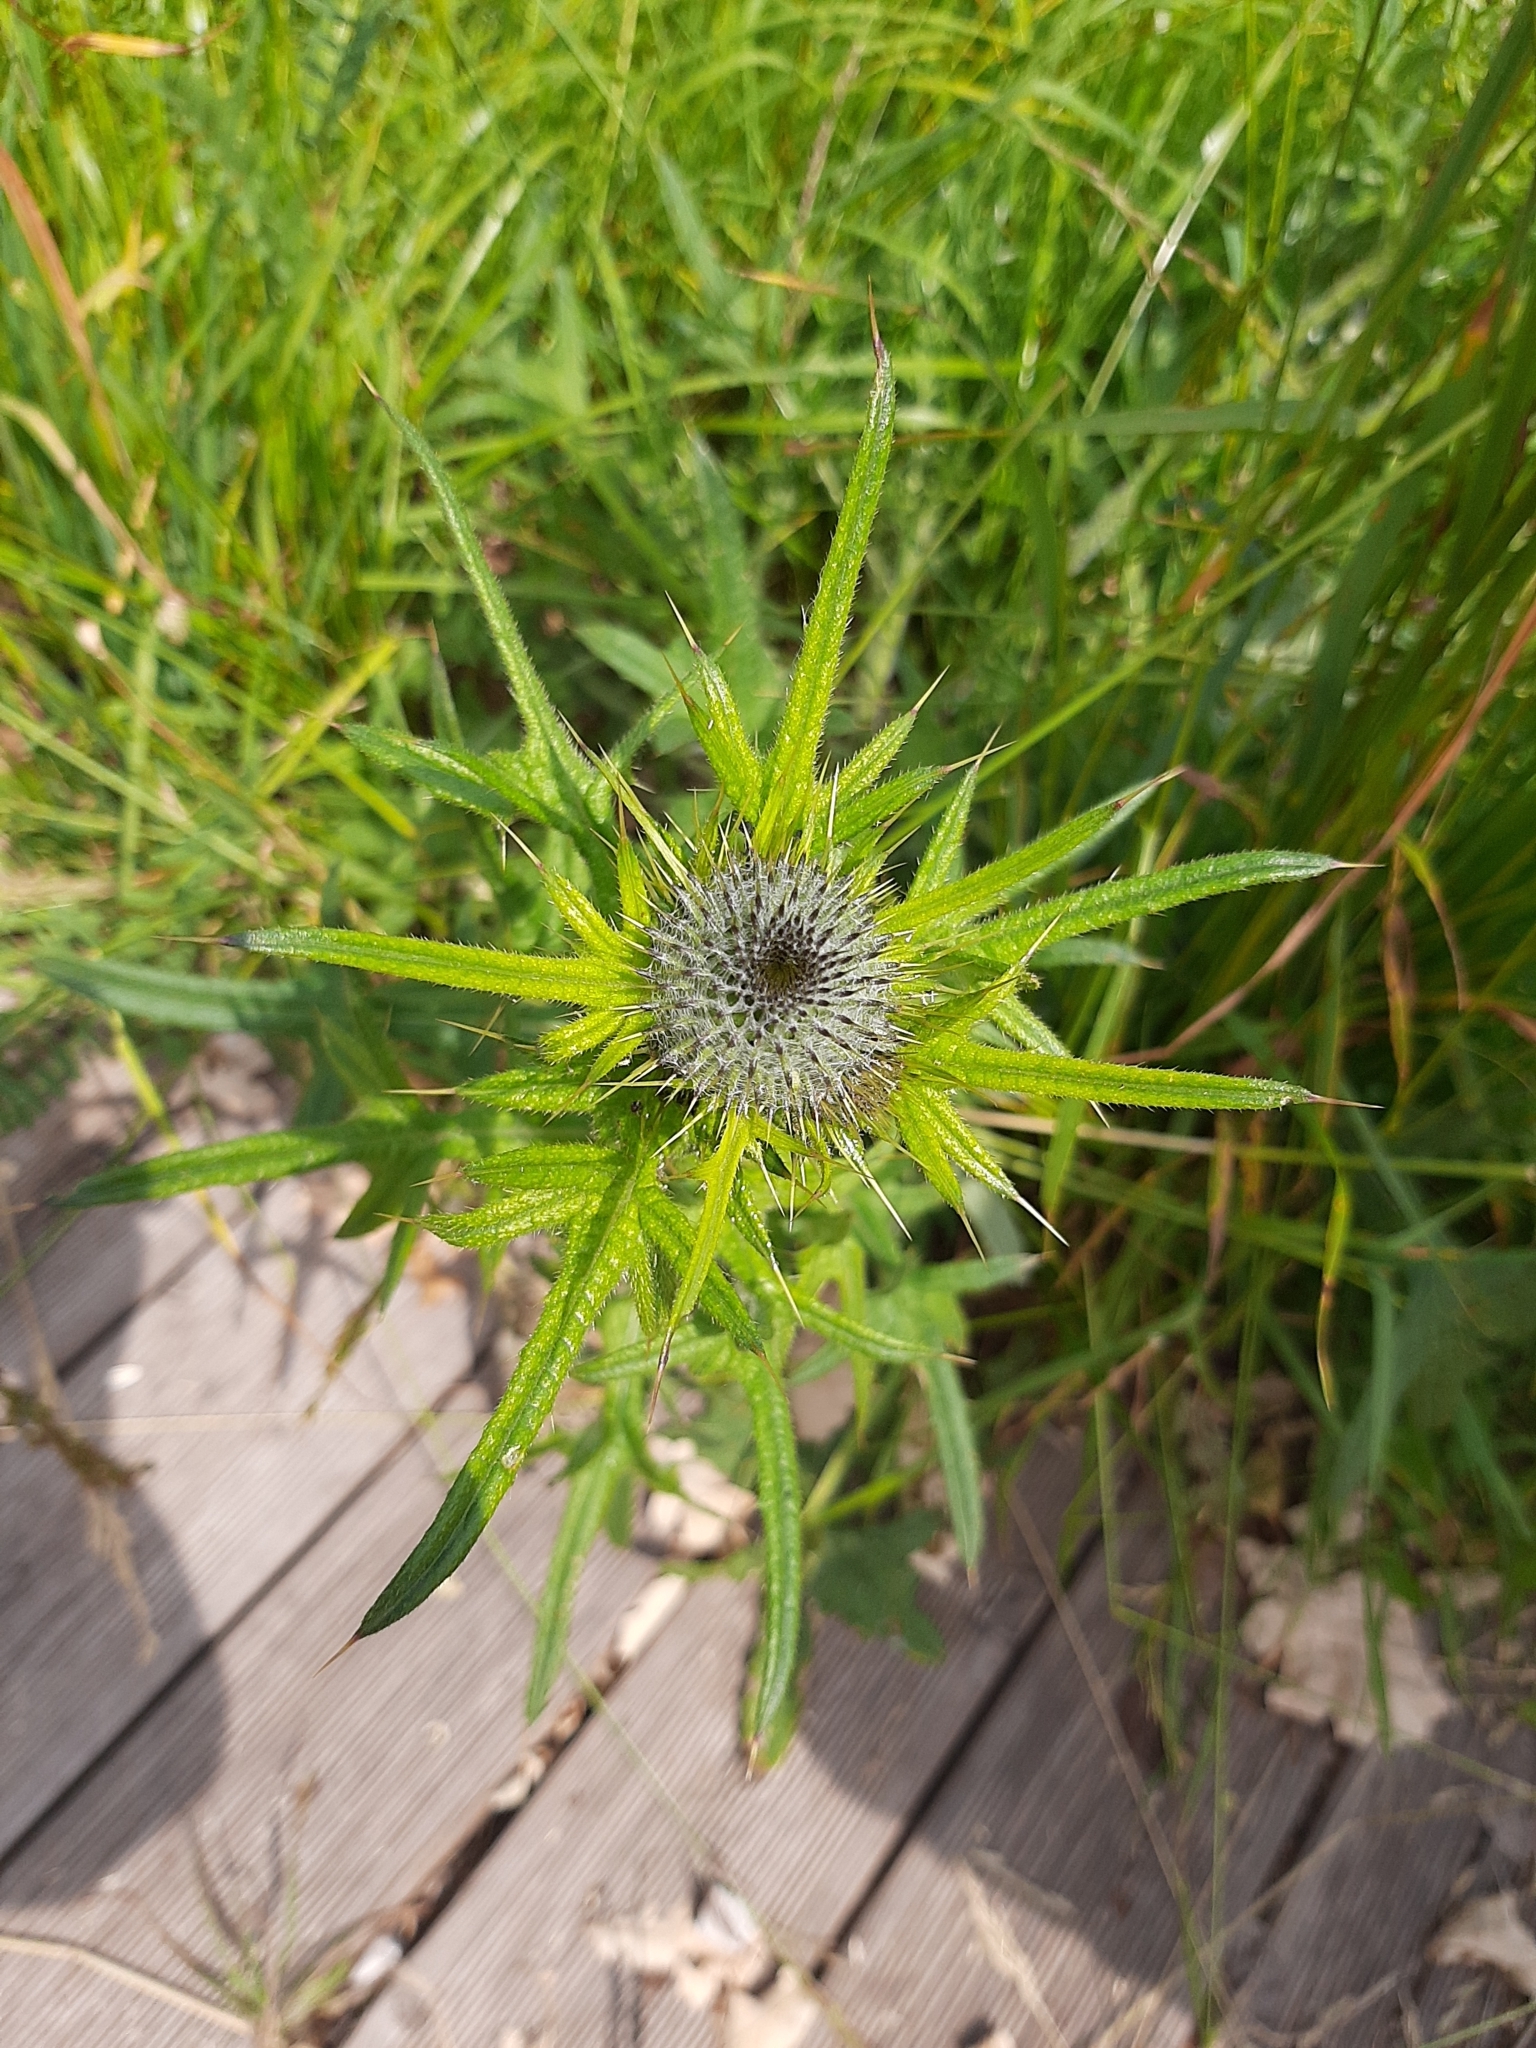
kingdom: Plantae
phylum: Tracheophyta
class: Magnoliopsida
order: Asterales
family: Asteraceae
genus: Cirsium
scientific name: Cirsium vulgare
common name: Bull thistle
